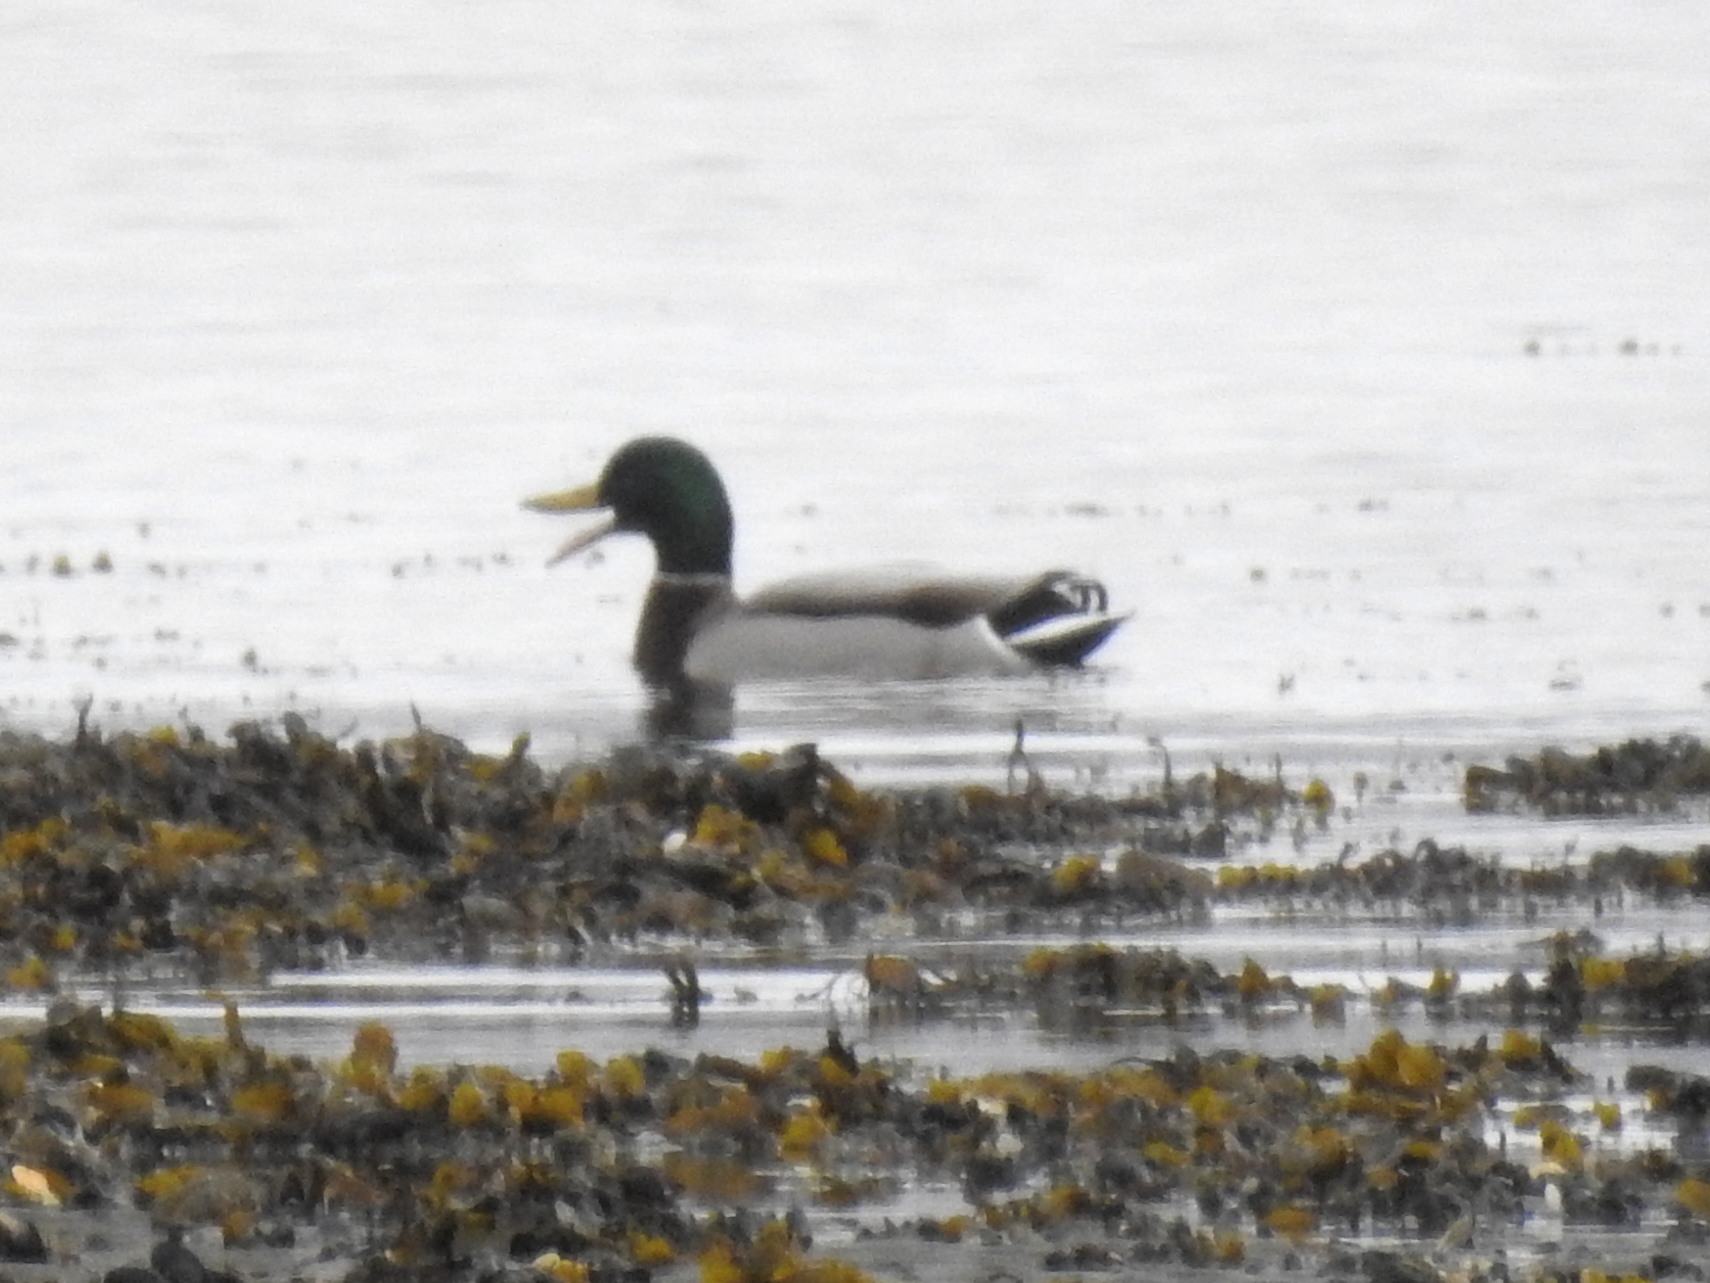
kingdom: Animalia
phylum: Chordata
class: Aves
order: Anseriformes
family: Anatidae
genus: Anas
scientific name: Anas platyrhynchos
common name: Mallard
